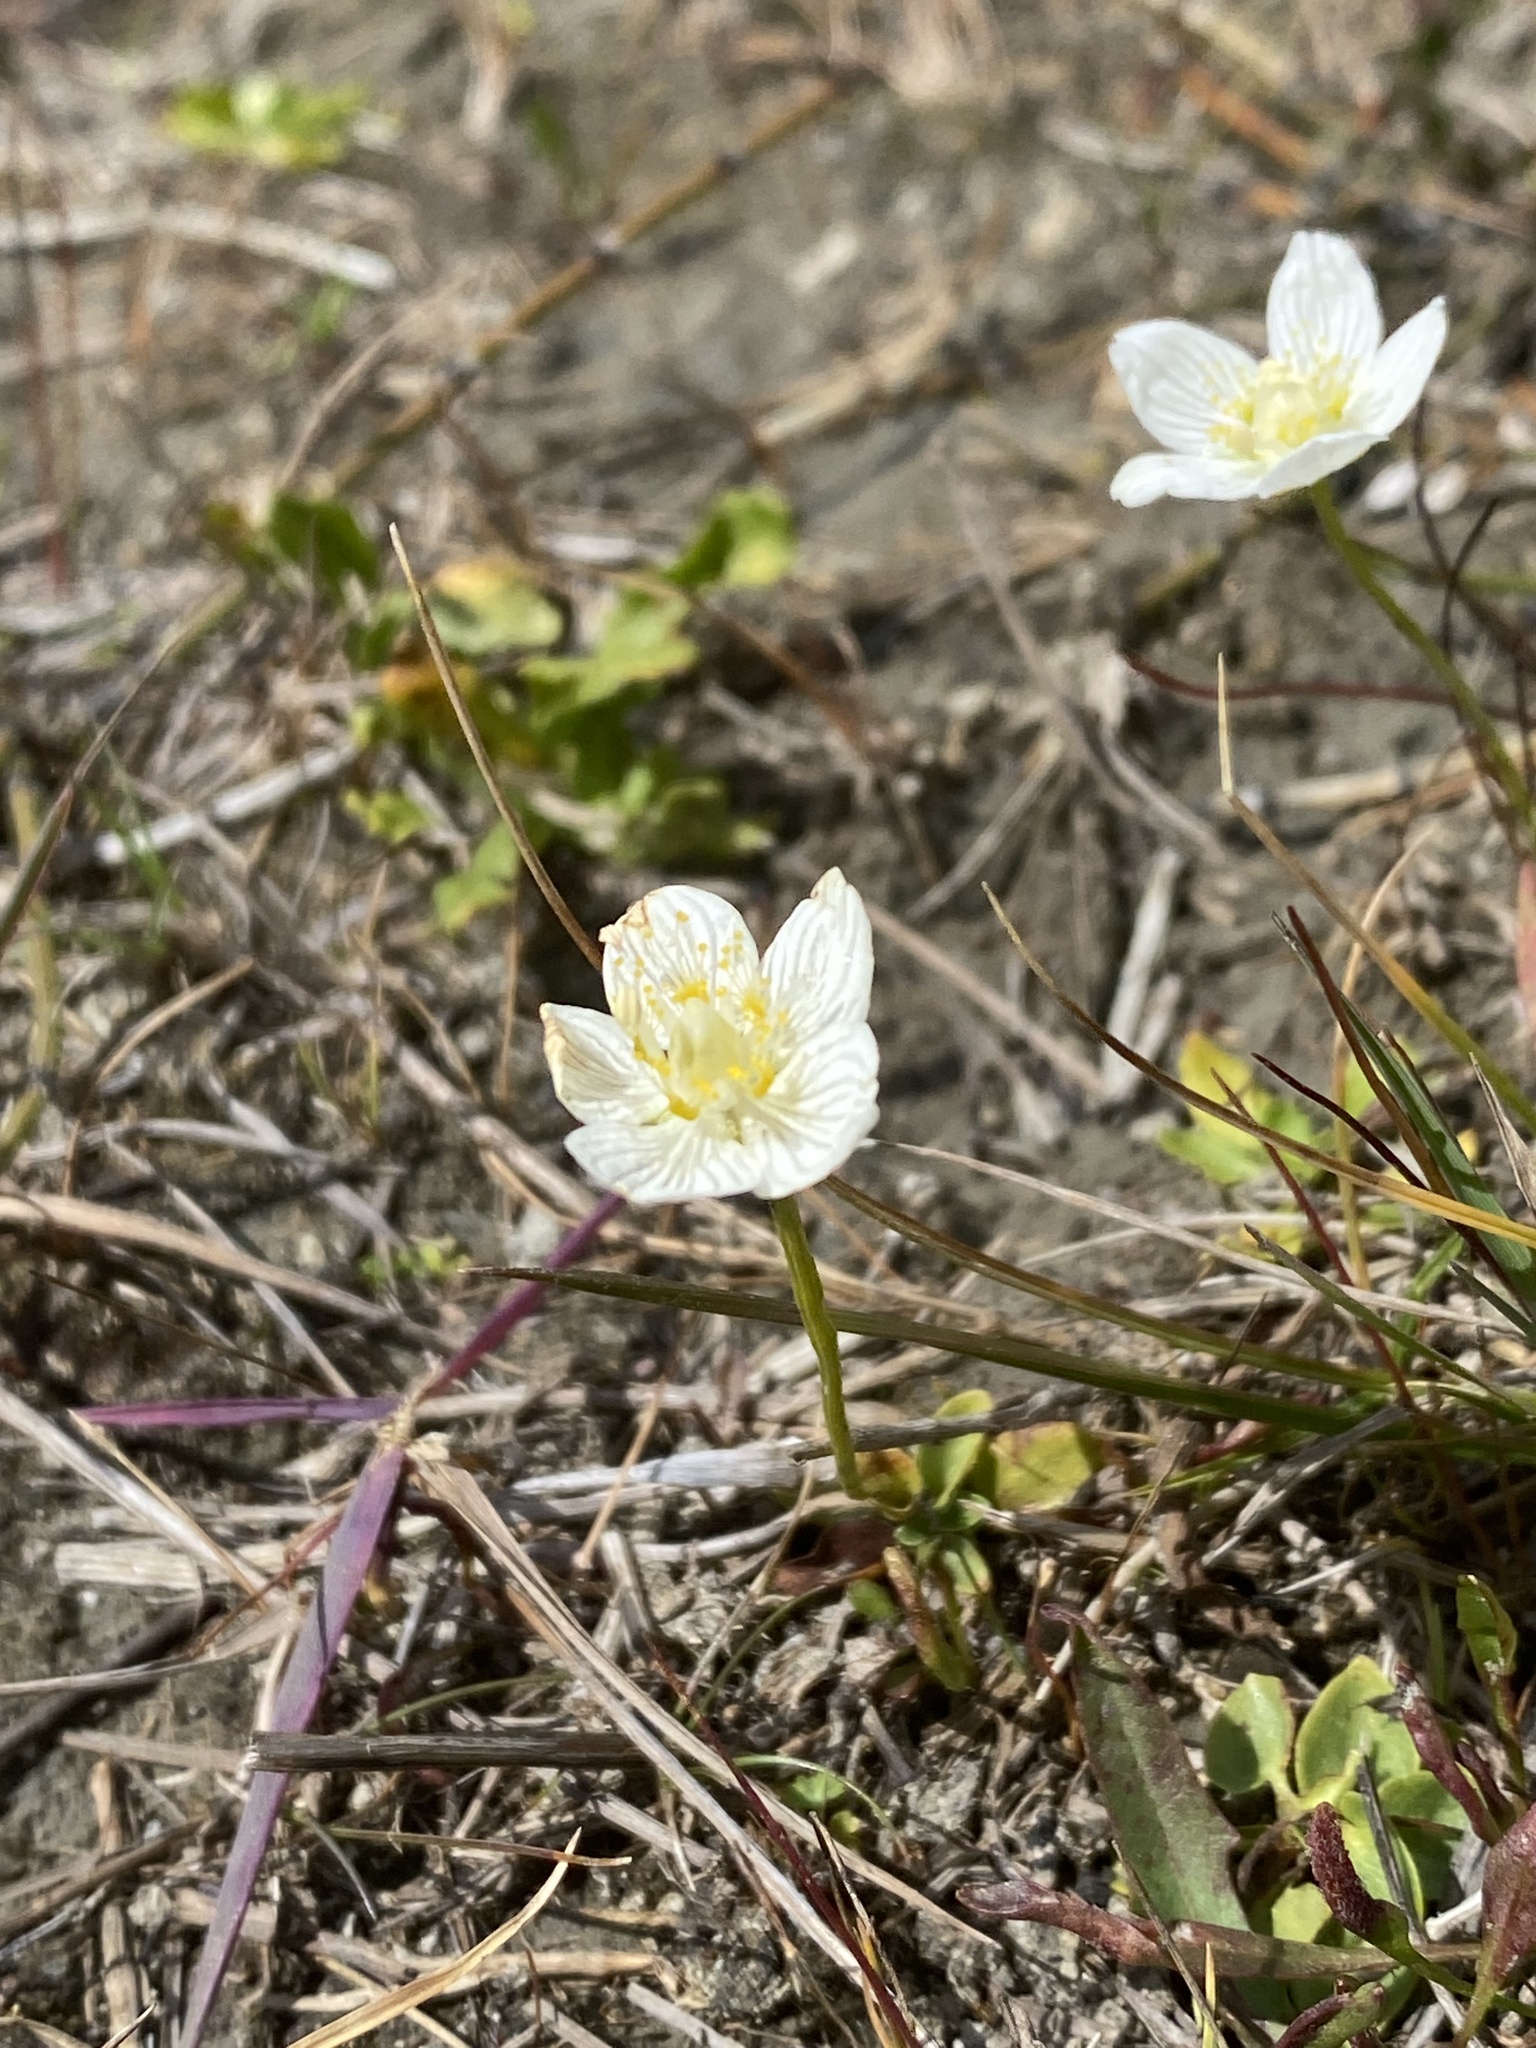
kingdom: Plantae
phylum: Tracheophyta
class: Magnoliopsida
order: Celastrales
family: Parnassiaceae
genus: Parnassia
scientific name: Parnassia palustris
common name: Grass-of-parnassus
